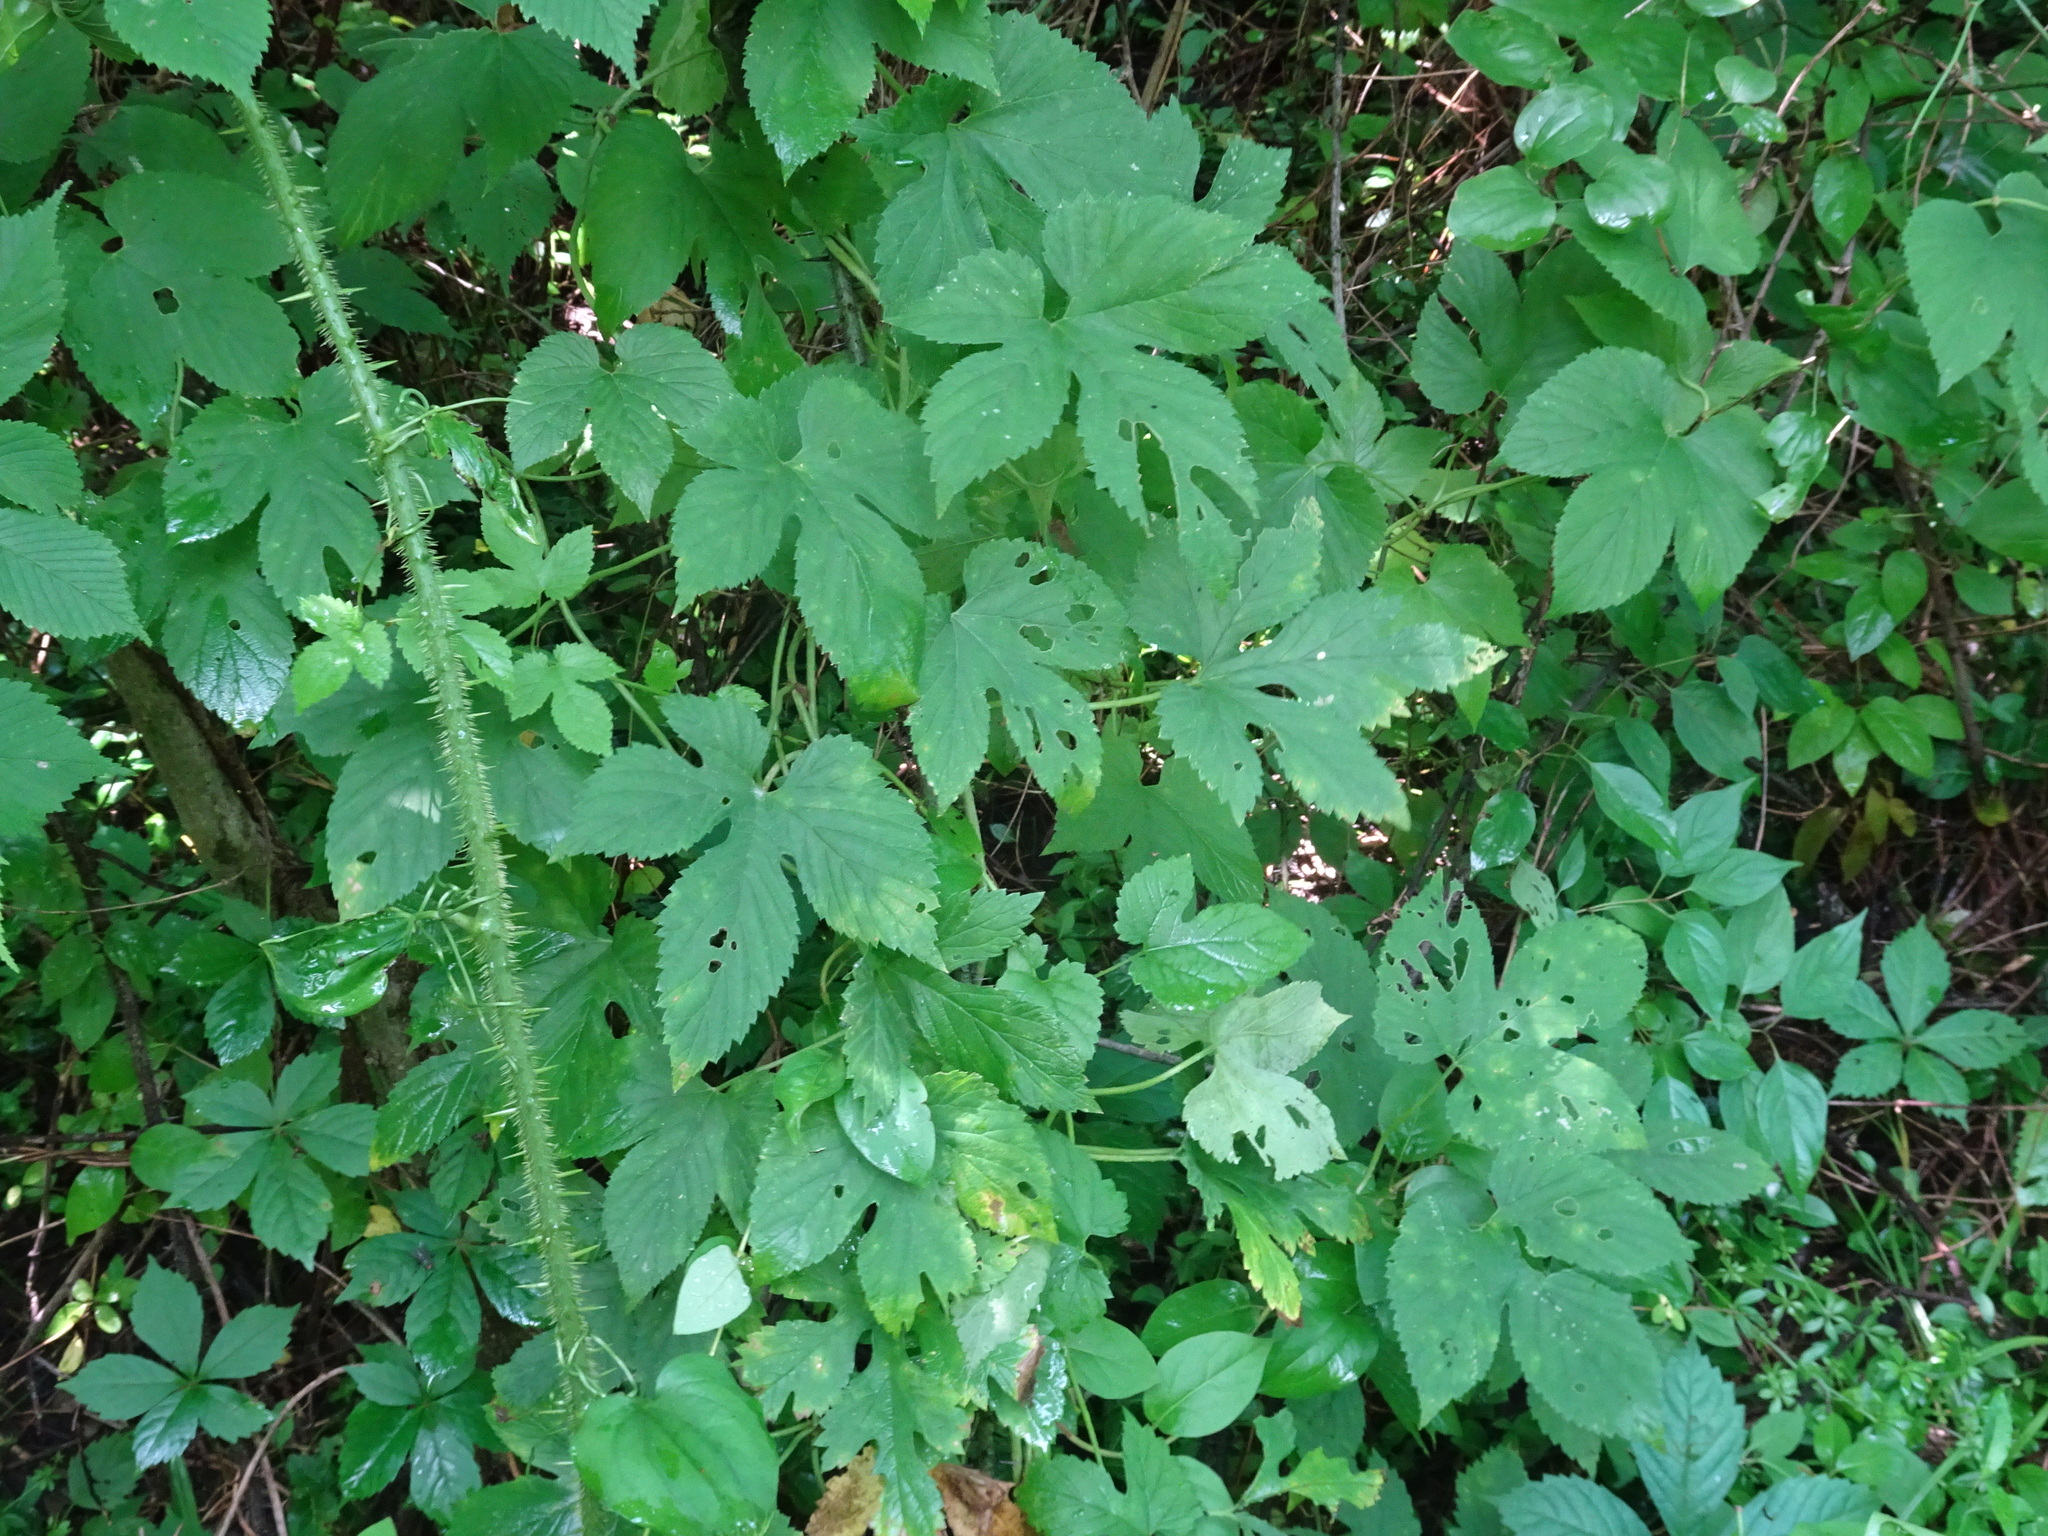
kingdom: Plantae
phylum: Tracheophyta
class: Magnoliopsida
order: Rosales
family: Cannabaceae
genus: Humulus
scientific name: Humulus lupulus
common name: Hop
